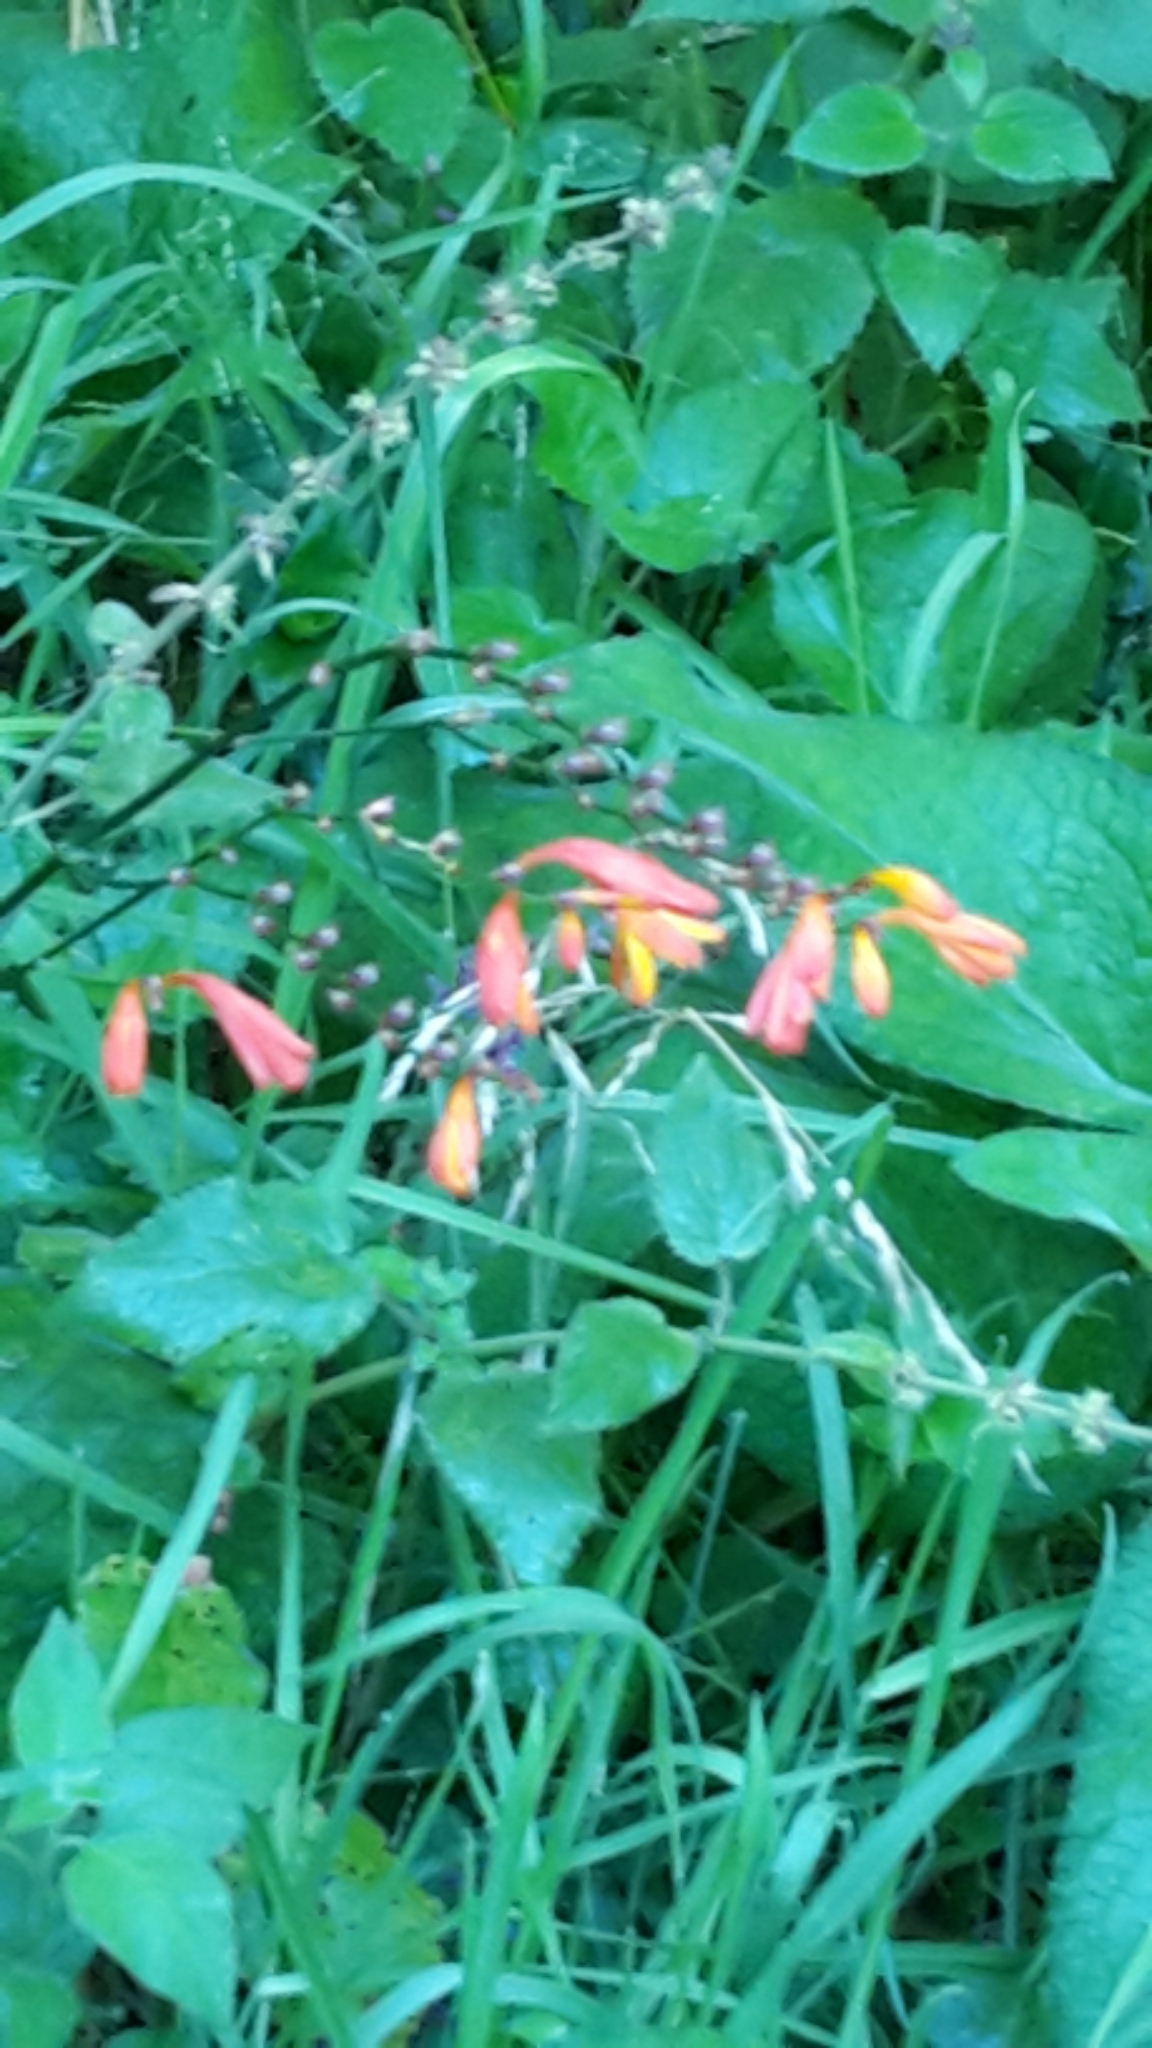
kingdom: Plantae
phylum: Tracheophyta
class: Liliopsida
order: Asparagales
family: Iridaceae
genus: Crocosmia
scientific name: Crocosmia crocosmiiflora
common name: Montbretia
